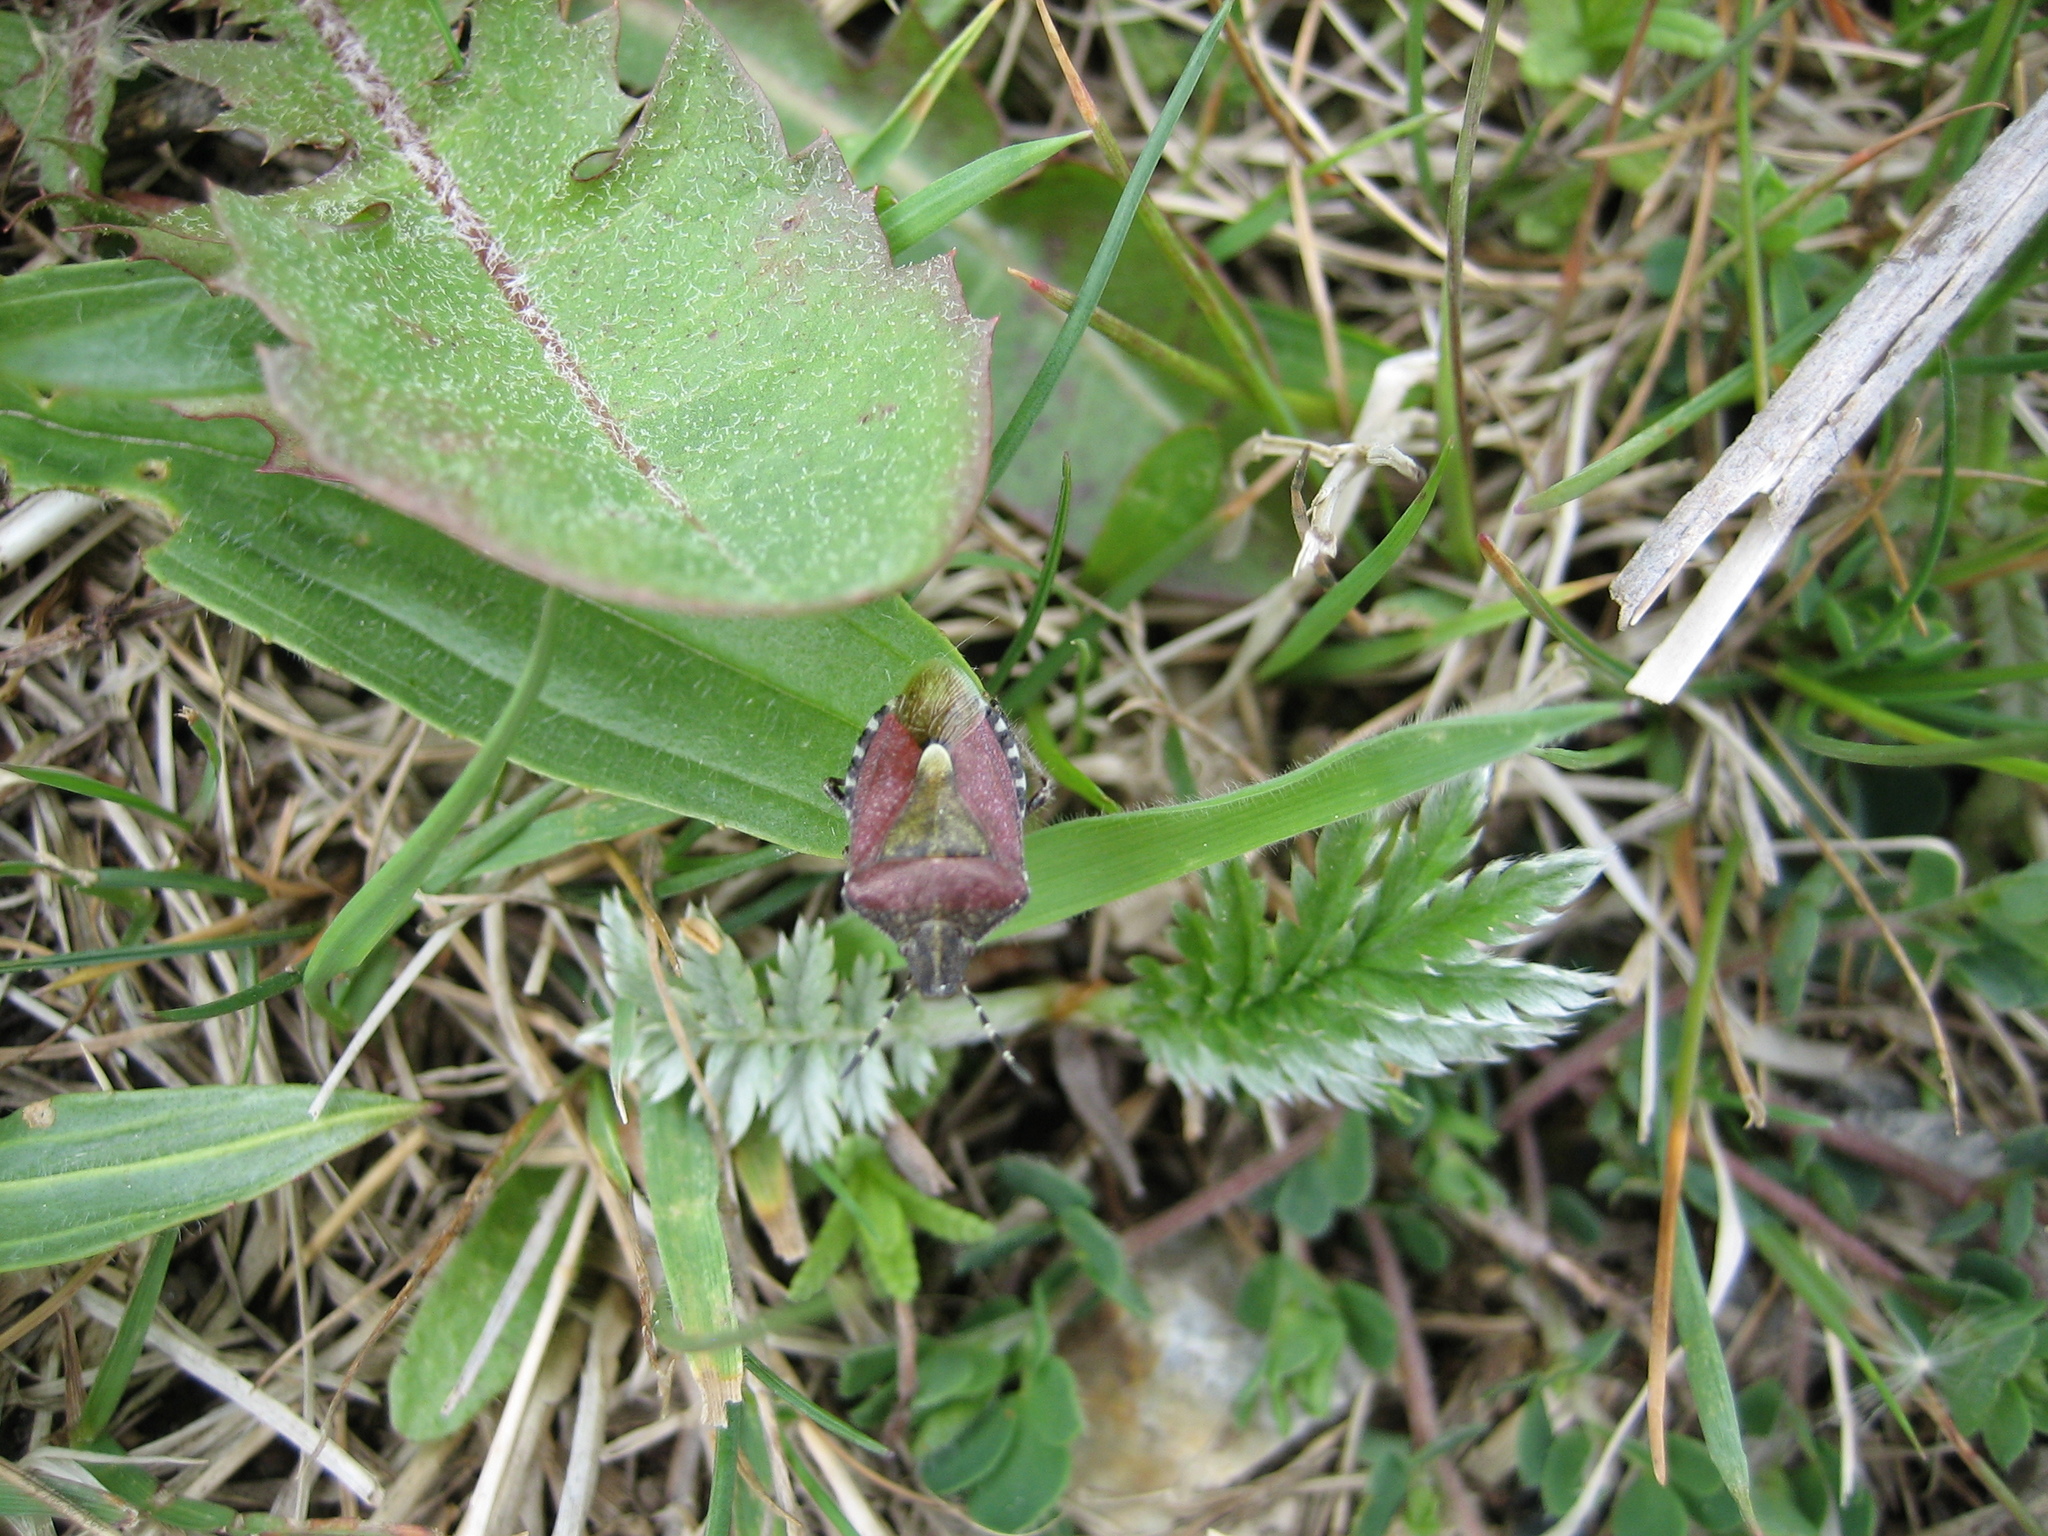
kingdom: Animalia
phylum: Arthropoda
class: Insecta
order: Hemiptera
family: Pentatomidae
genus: Dolycoris
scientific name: Dolycoris baccarum
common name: Sloe bug
